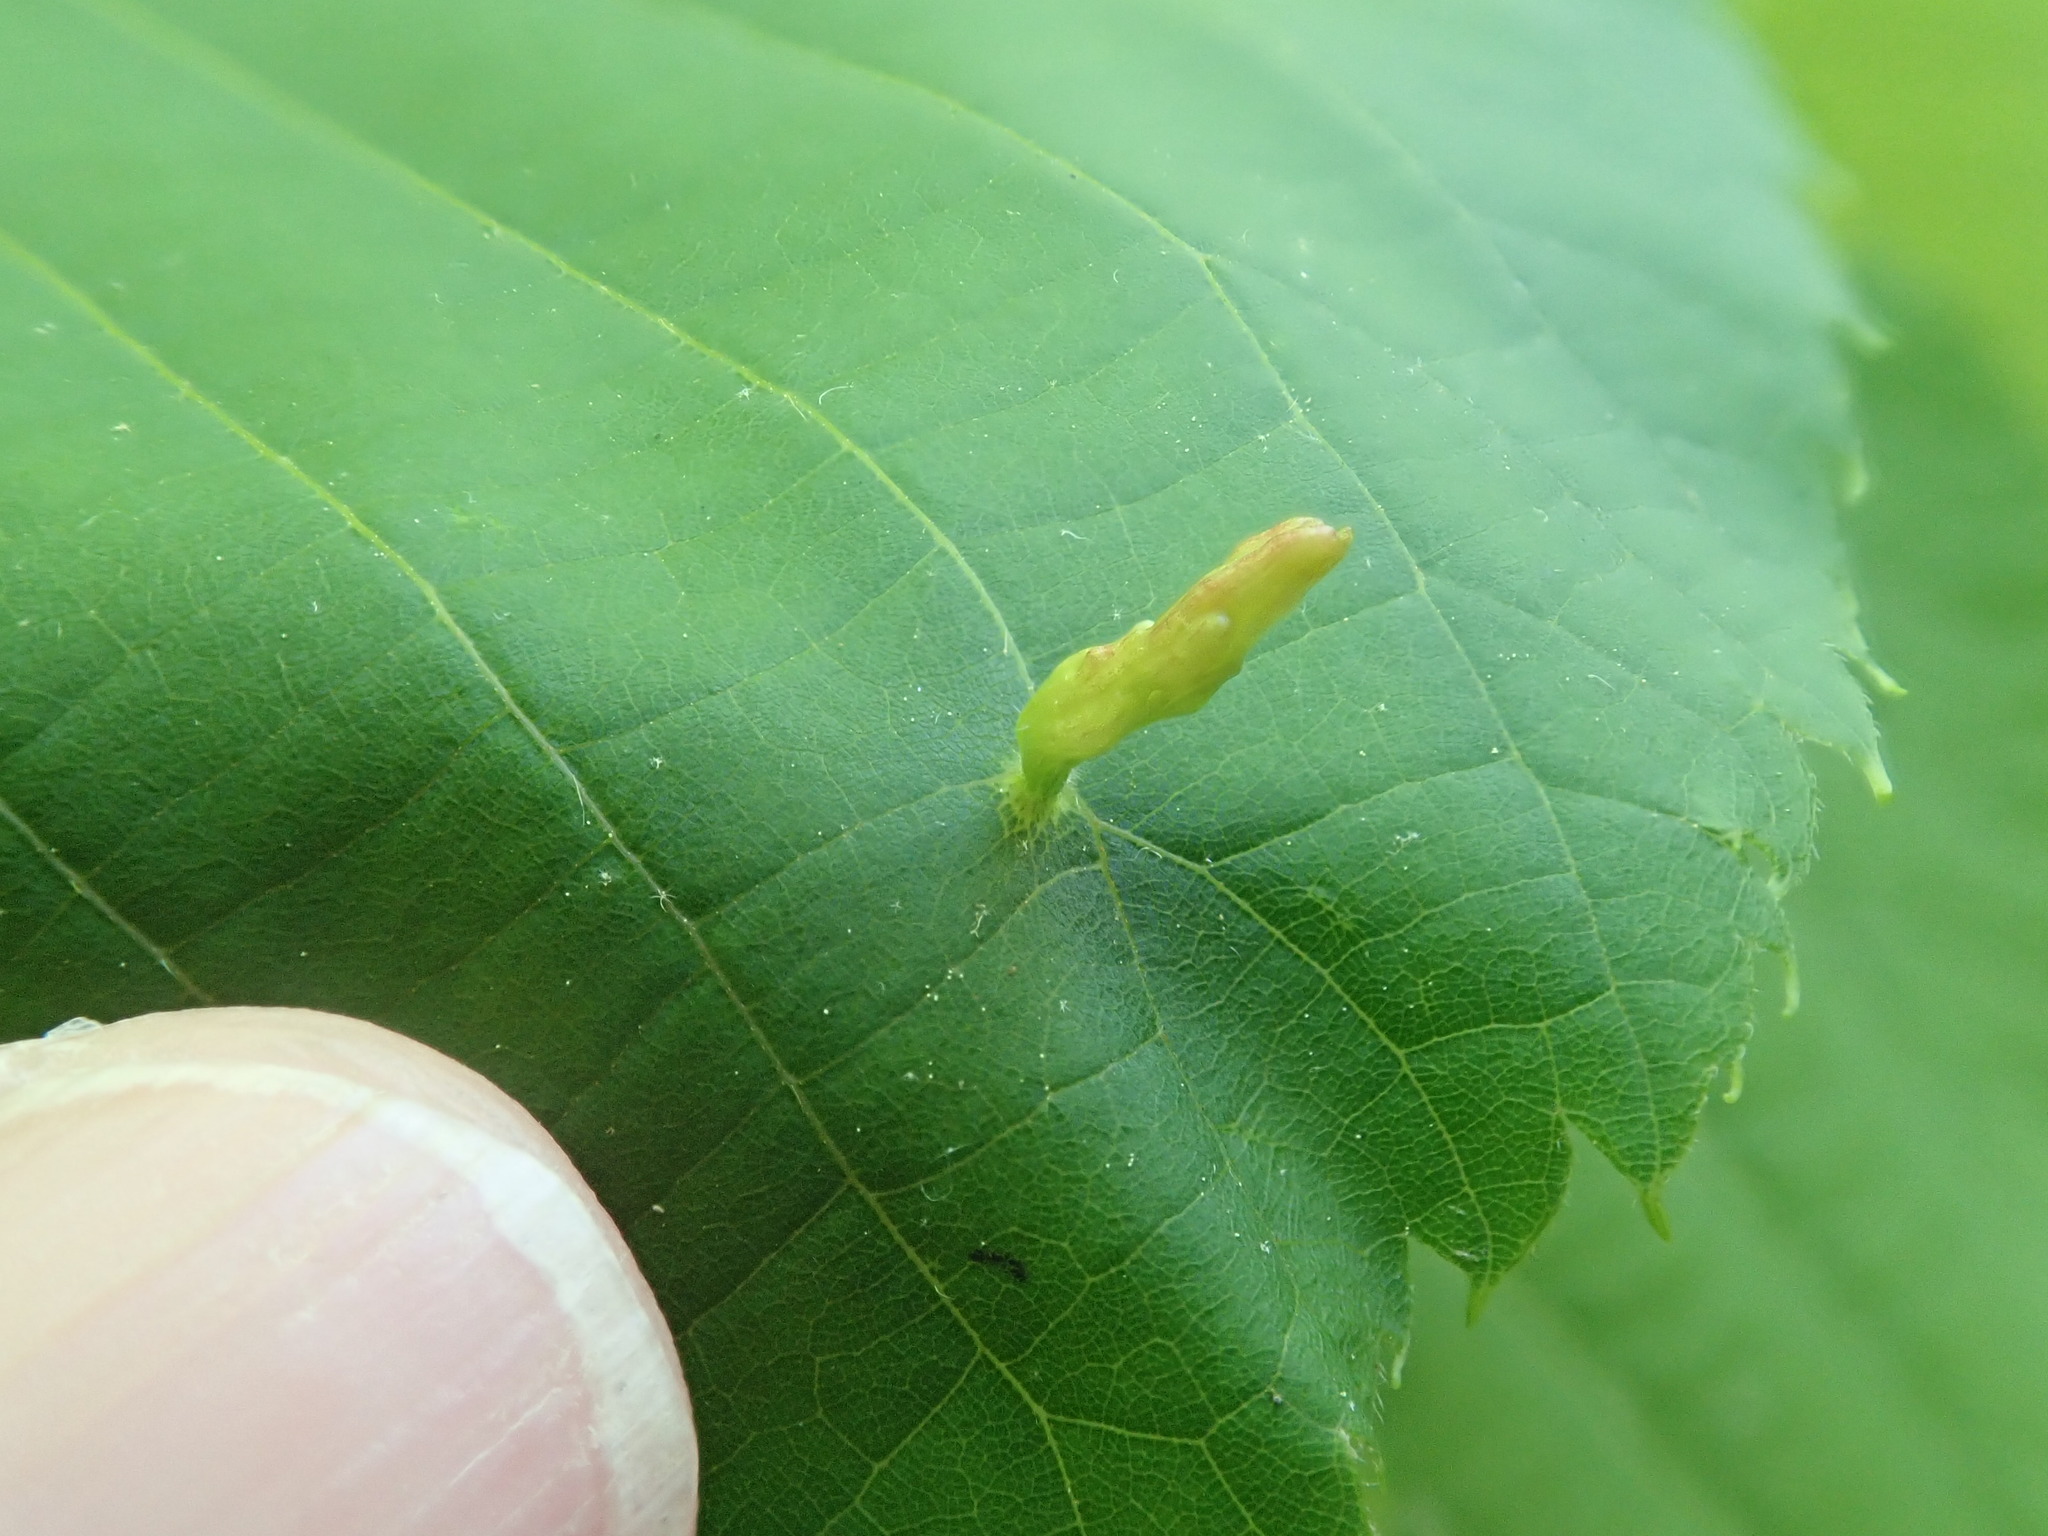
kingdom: Animalia
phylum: Arthropoda
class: Arachnida
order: Trombidiformes
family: Eriophyidae
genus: Eriophyes
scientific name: Eriophyes tiliae
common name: Red nail gall mite
